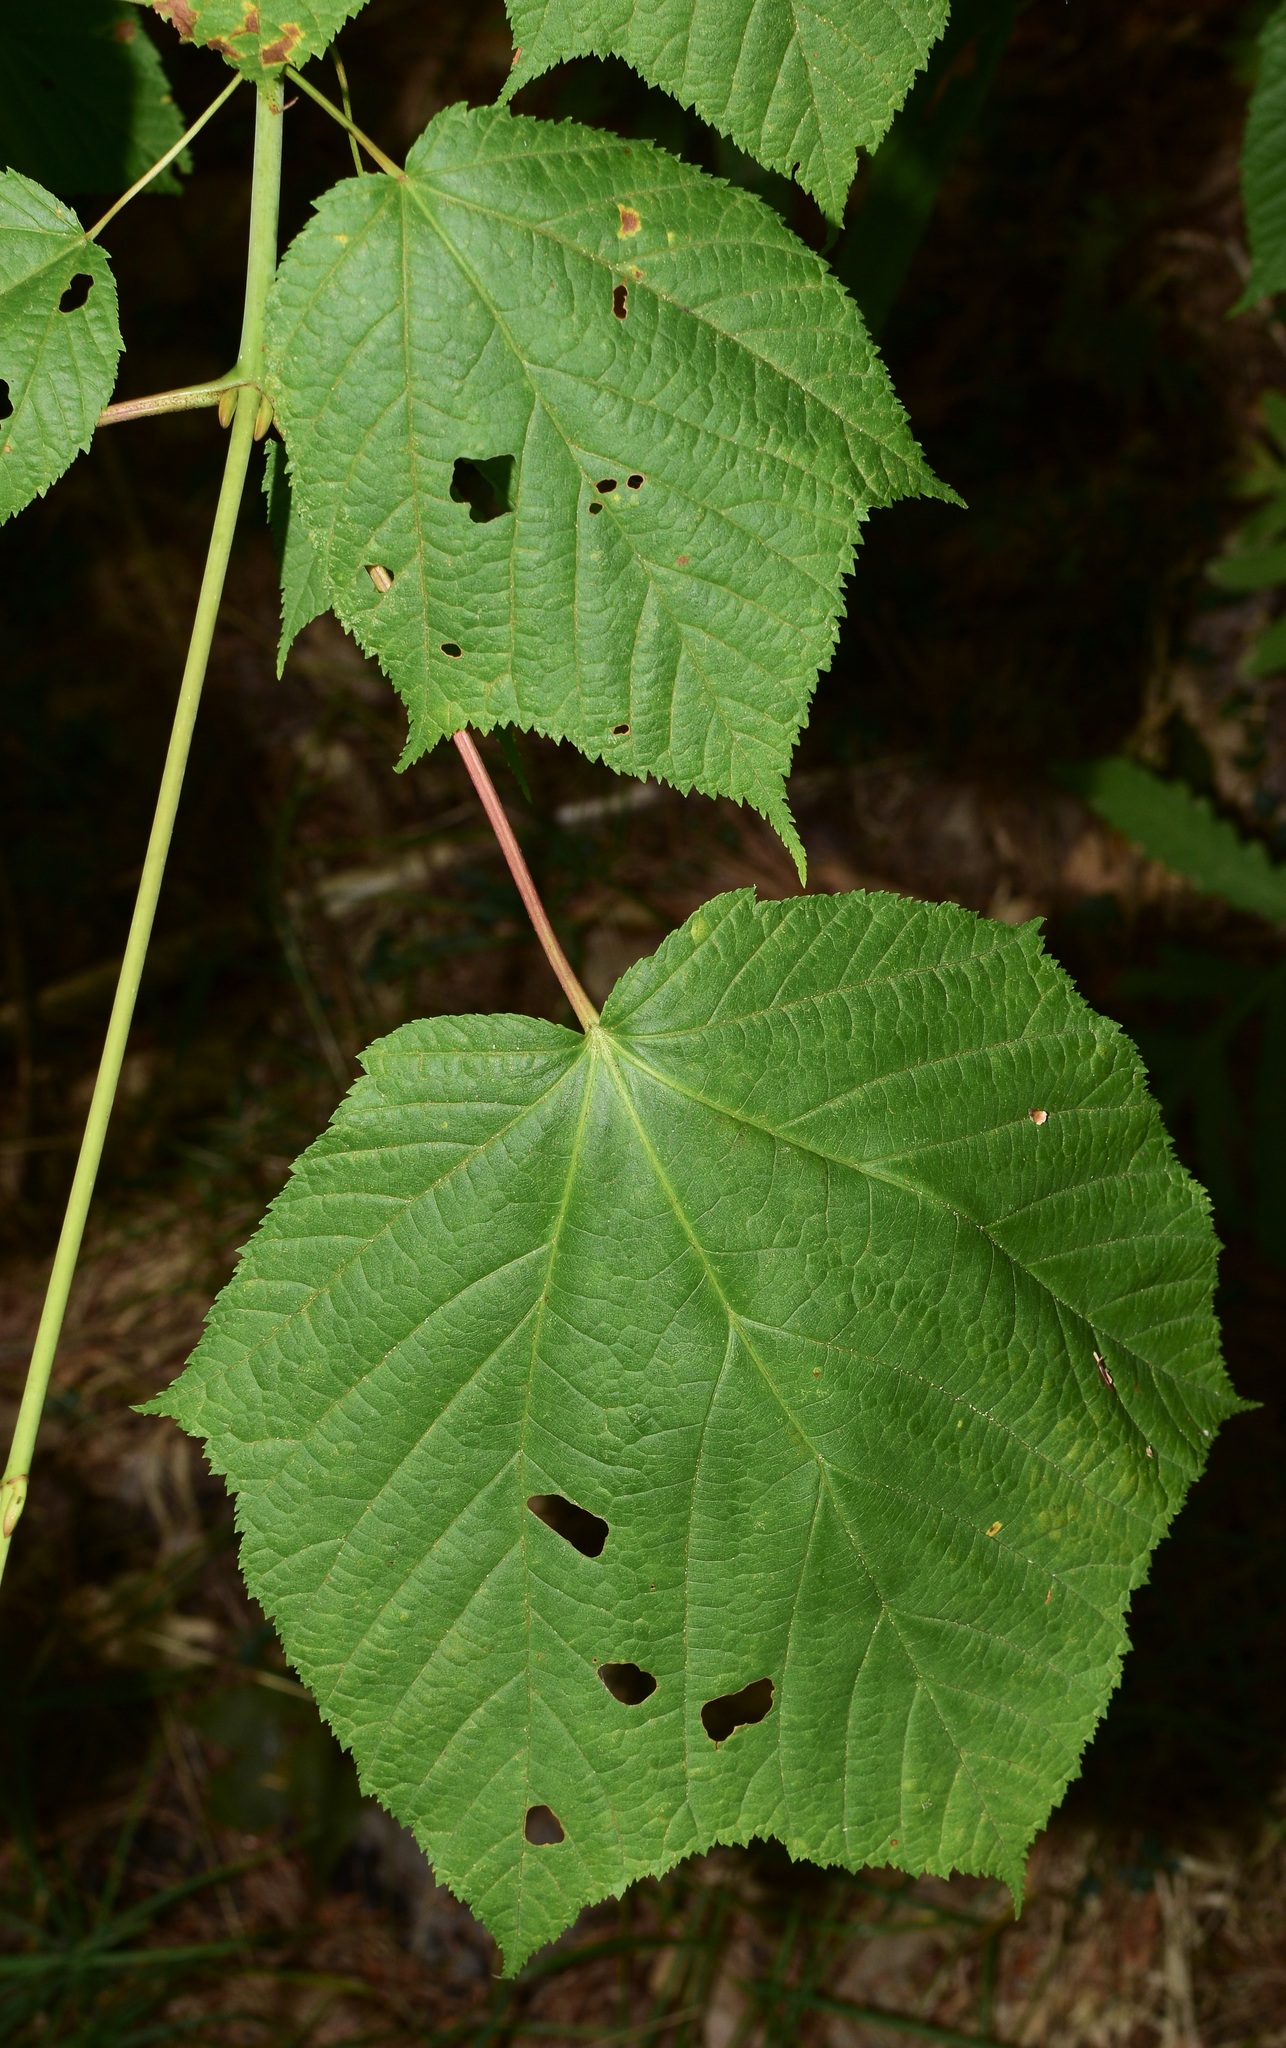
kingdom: Plantae
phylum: Tracheophyta
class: Magnoliopsida
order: Sapindales
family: Sapindaceae
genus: Acer
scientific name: Acer pensylvanicum
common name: Moosewood
